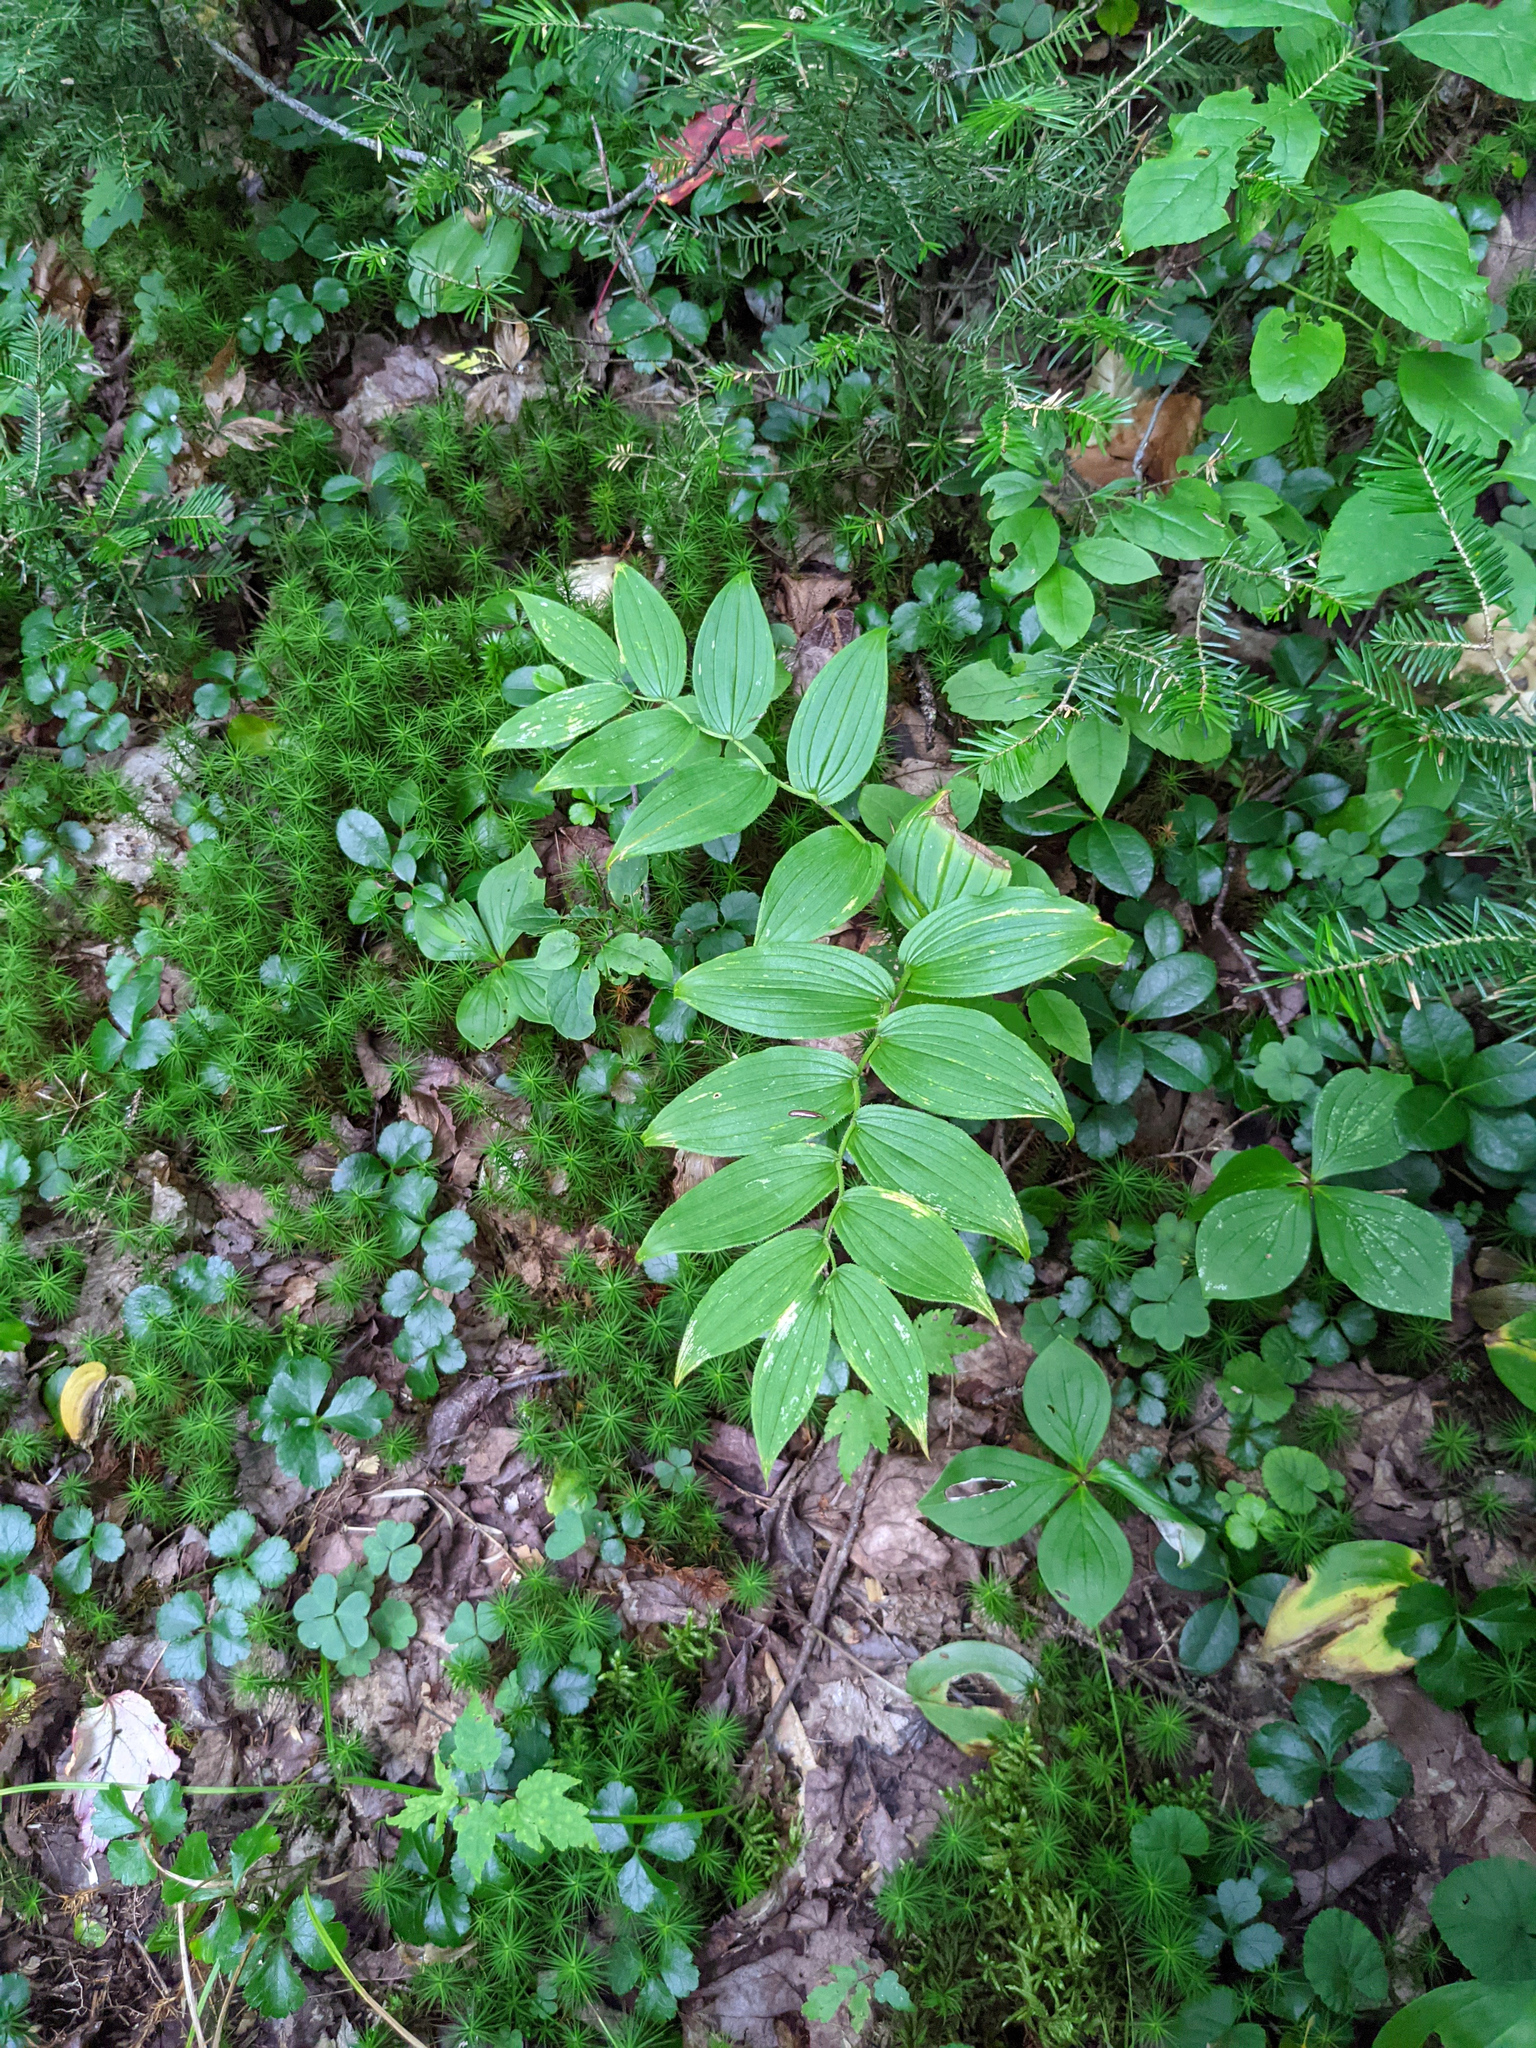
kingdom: Plantae
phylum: Tracheophyta
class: Liliopsida
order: Liliales
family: Liliaceae
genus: Streptopus
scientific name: Streptopus lanceolatus
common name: Rose mandarin
